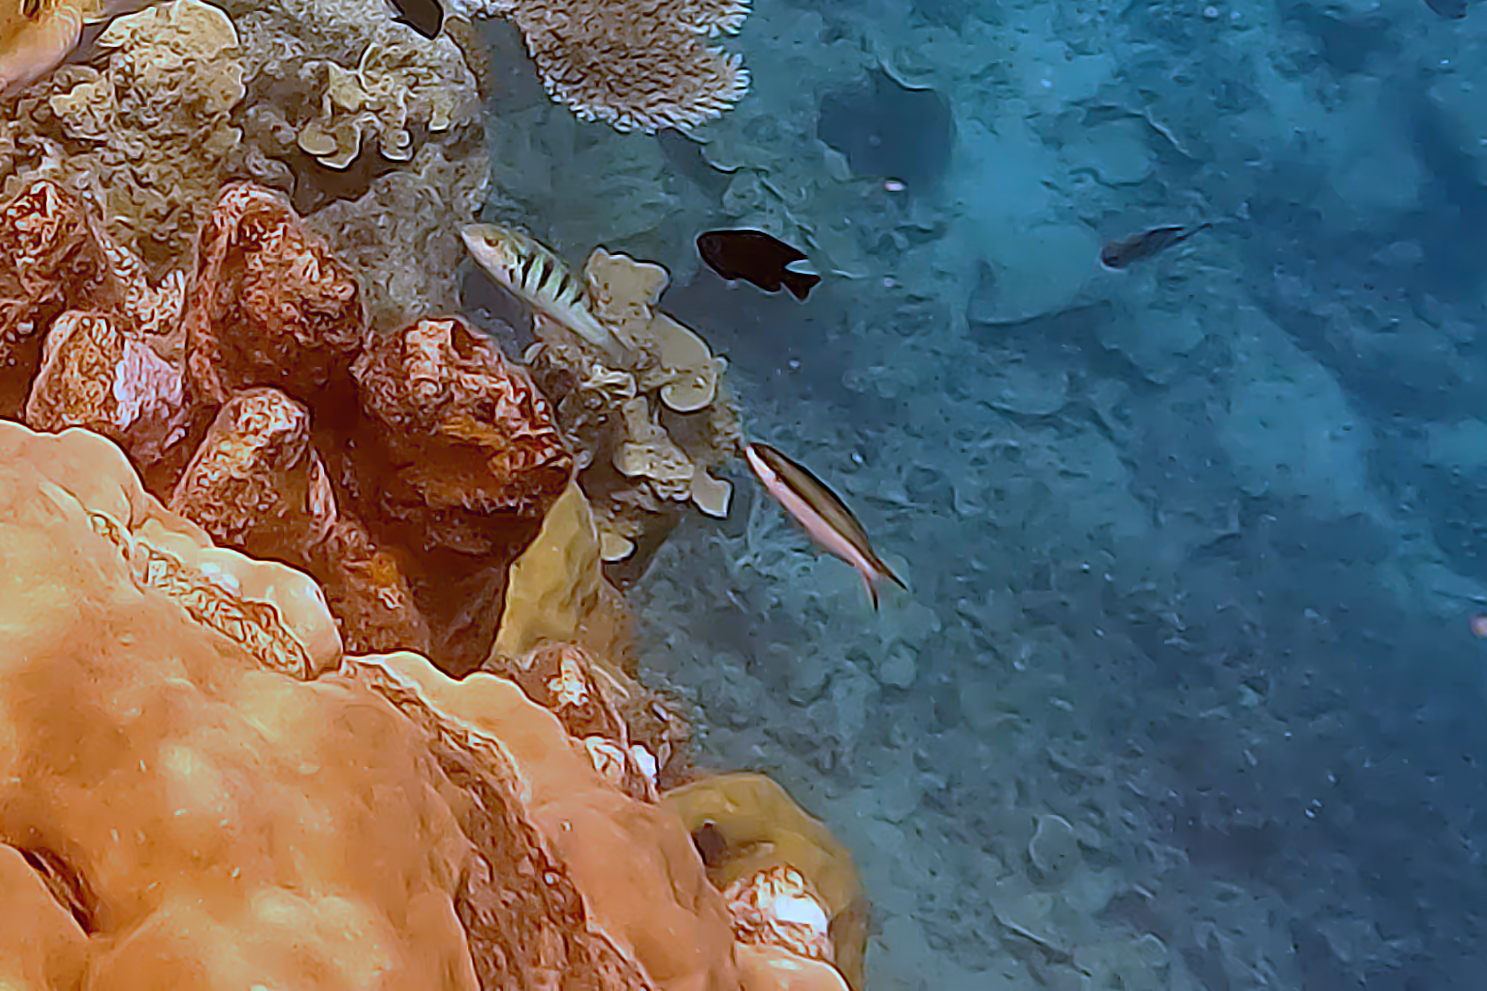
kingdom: Animalia
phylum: Chordata
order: Perciformes
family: Labridae
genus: Thalassoma
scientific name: Thalassoma amblycephalum
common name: Bluehead wrasse
